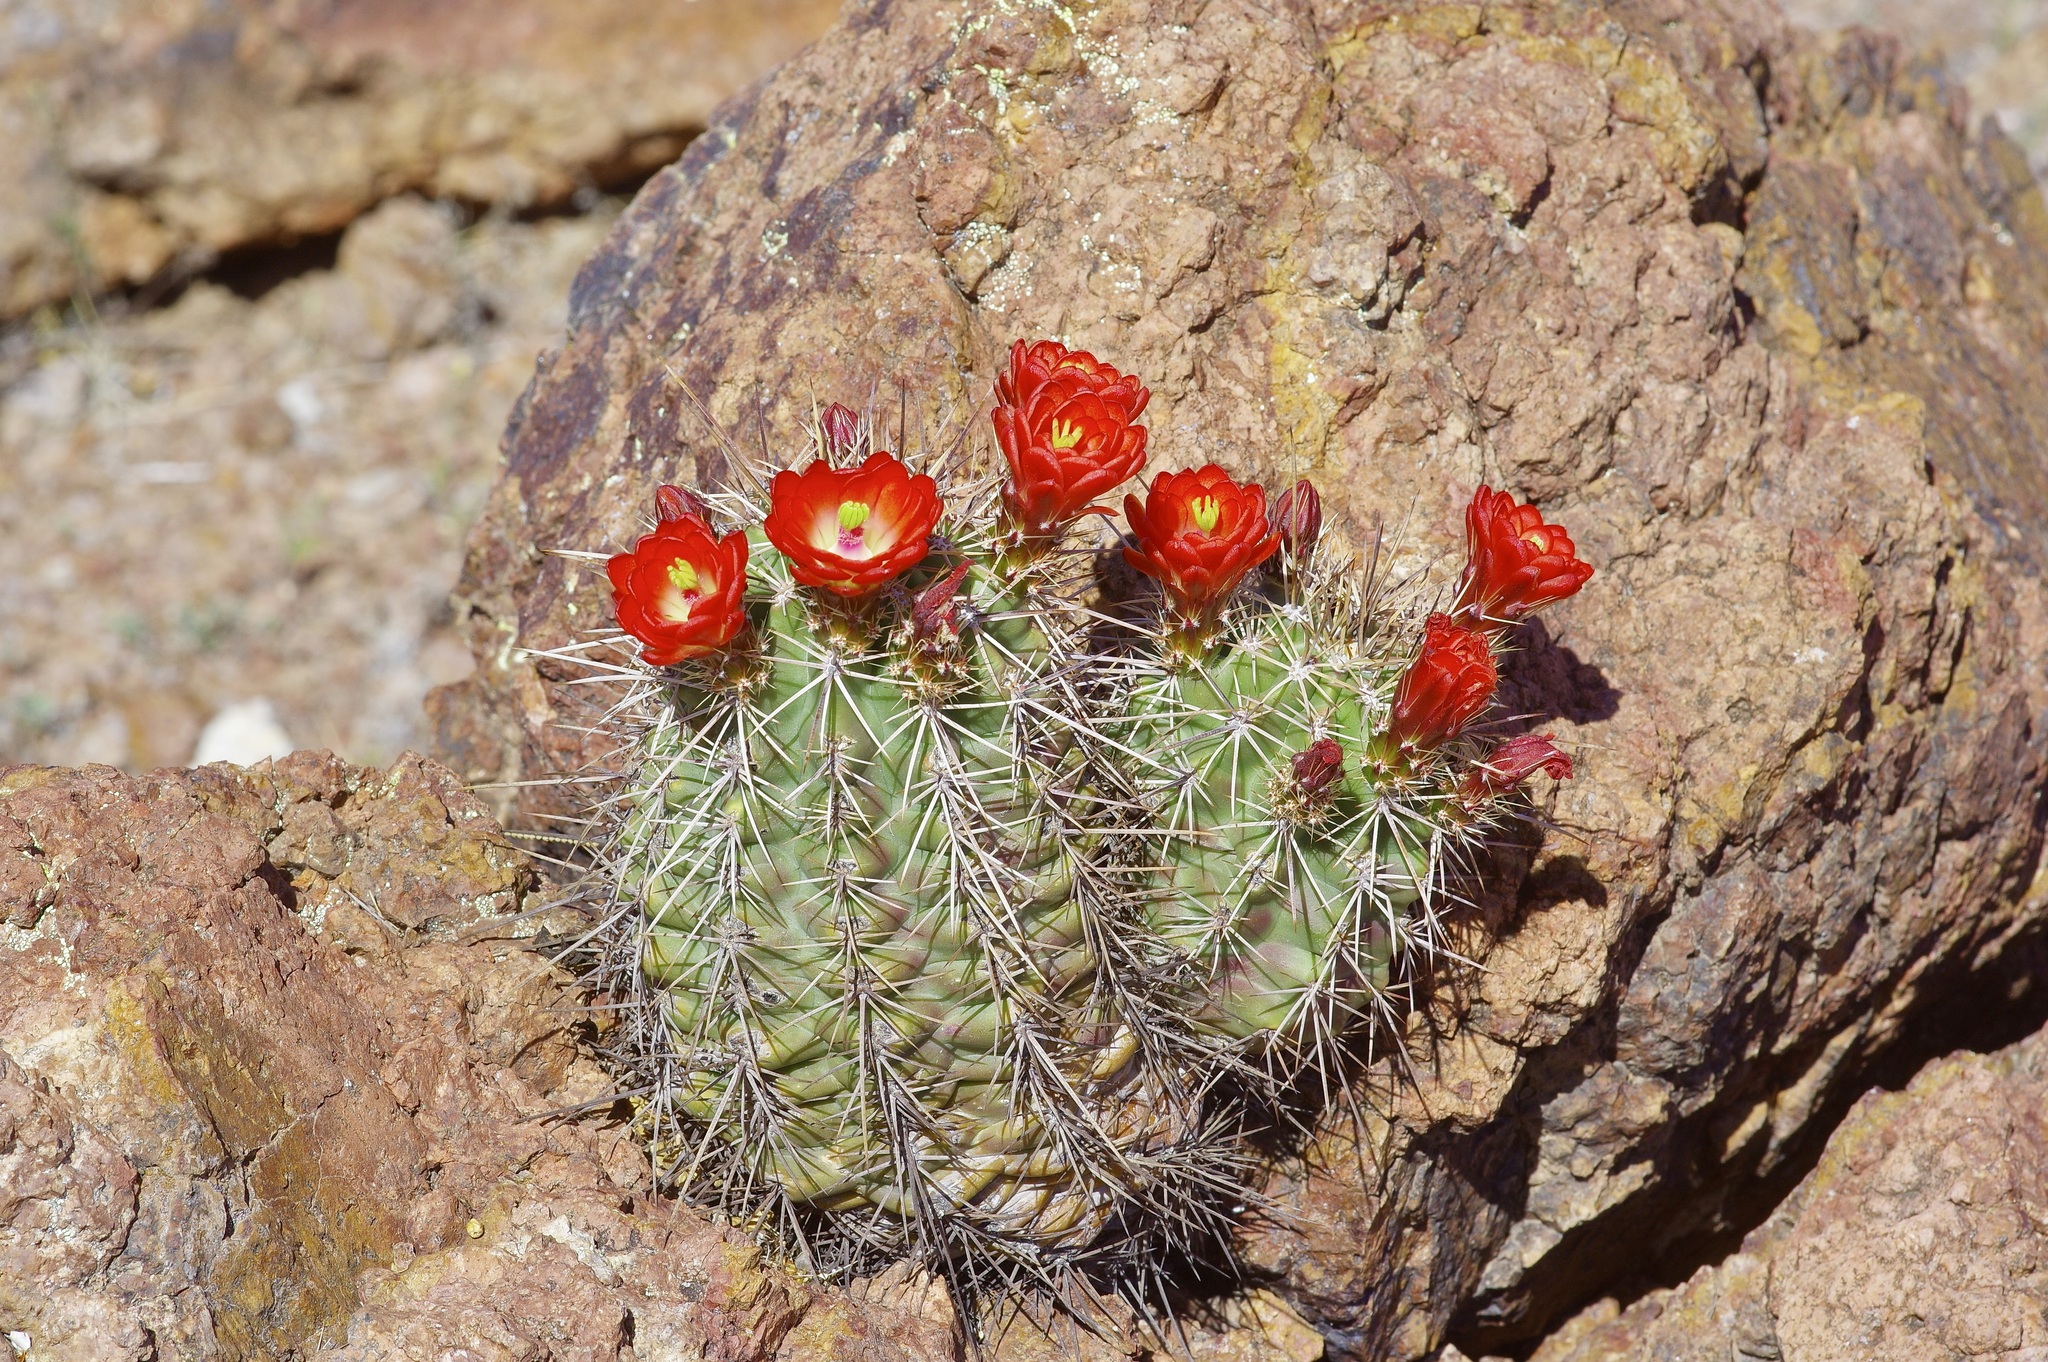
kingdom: Plantae
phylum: Tracheophyta
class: Magnoliopsida
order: Caryophyllales
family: Cactaceae
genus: Echinocereus
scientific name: Echinocereus coccineus
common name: Scarlet hedgehog cactus
